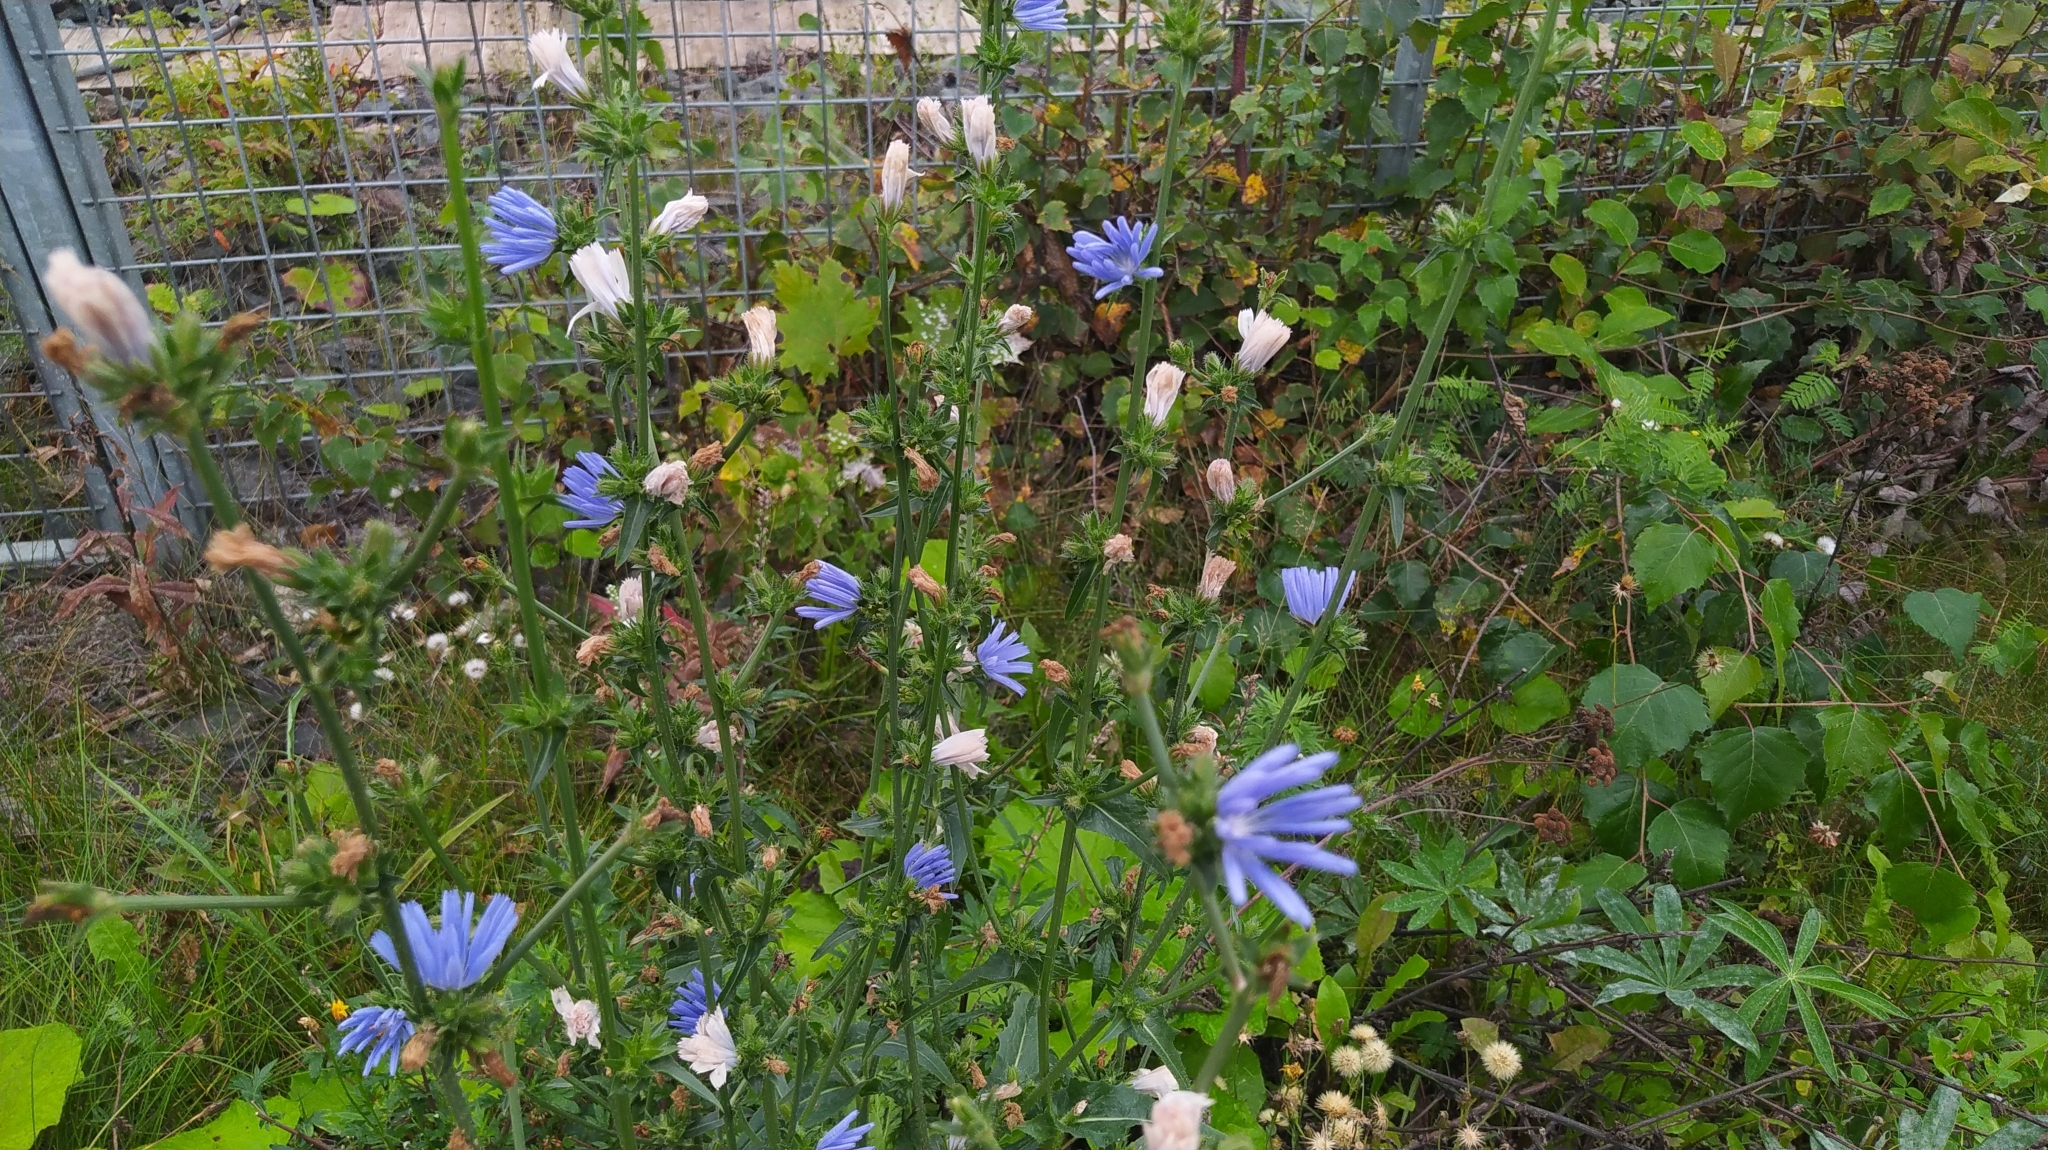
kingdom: Plantae
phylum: Tracheophyta
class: Magnoliopsida
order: Asterales
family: Asteraceae
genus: Cichorium
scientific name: Cichorium intybus
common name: Chicory
